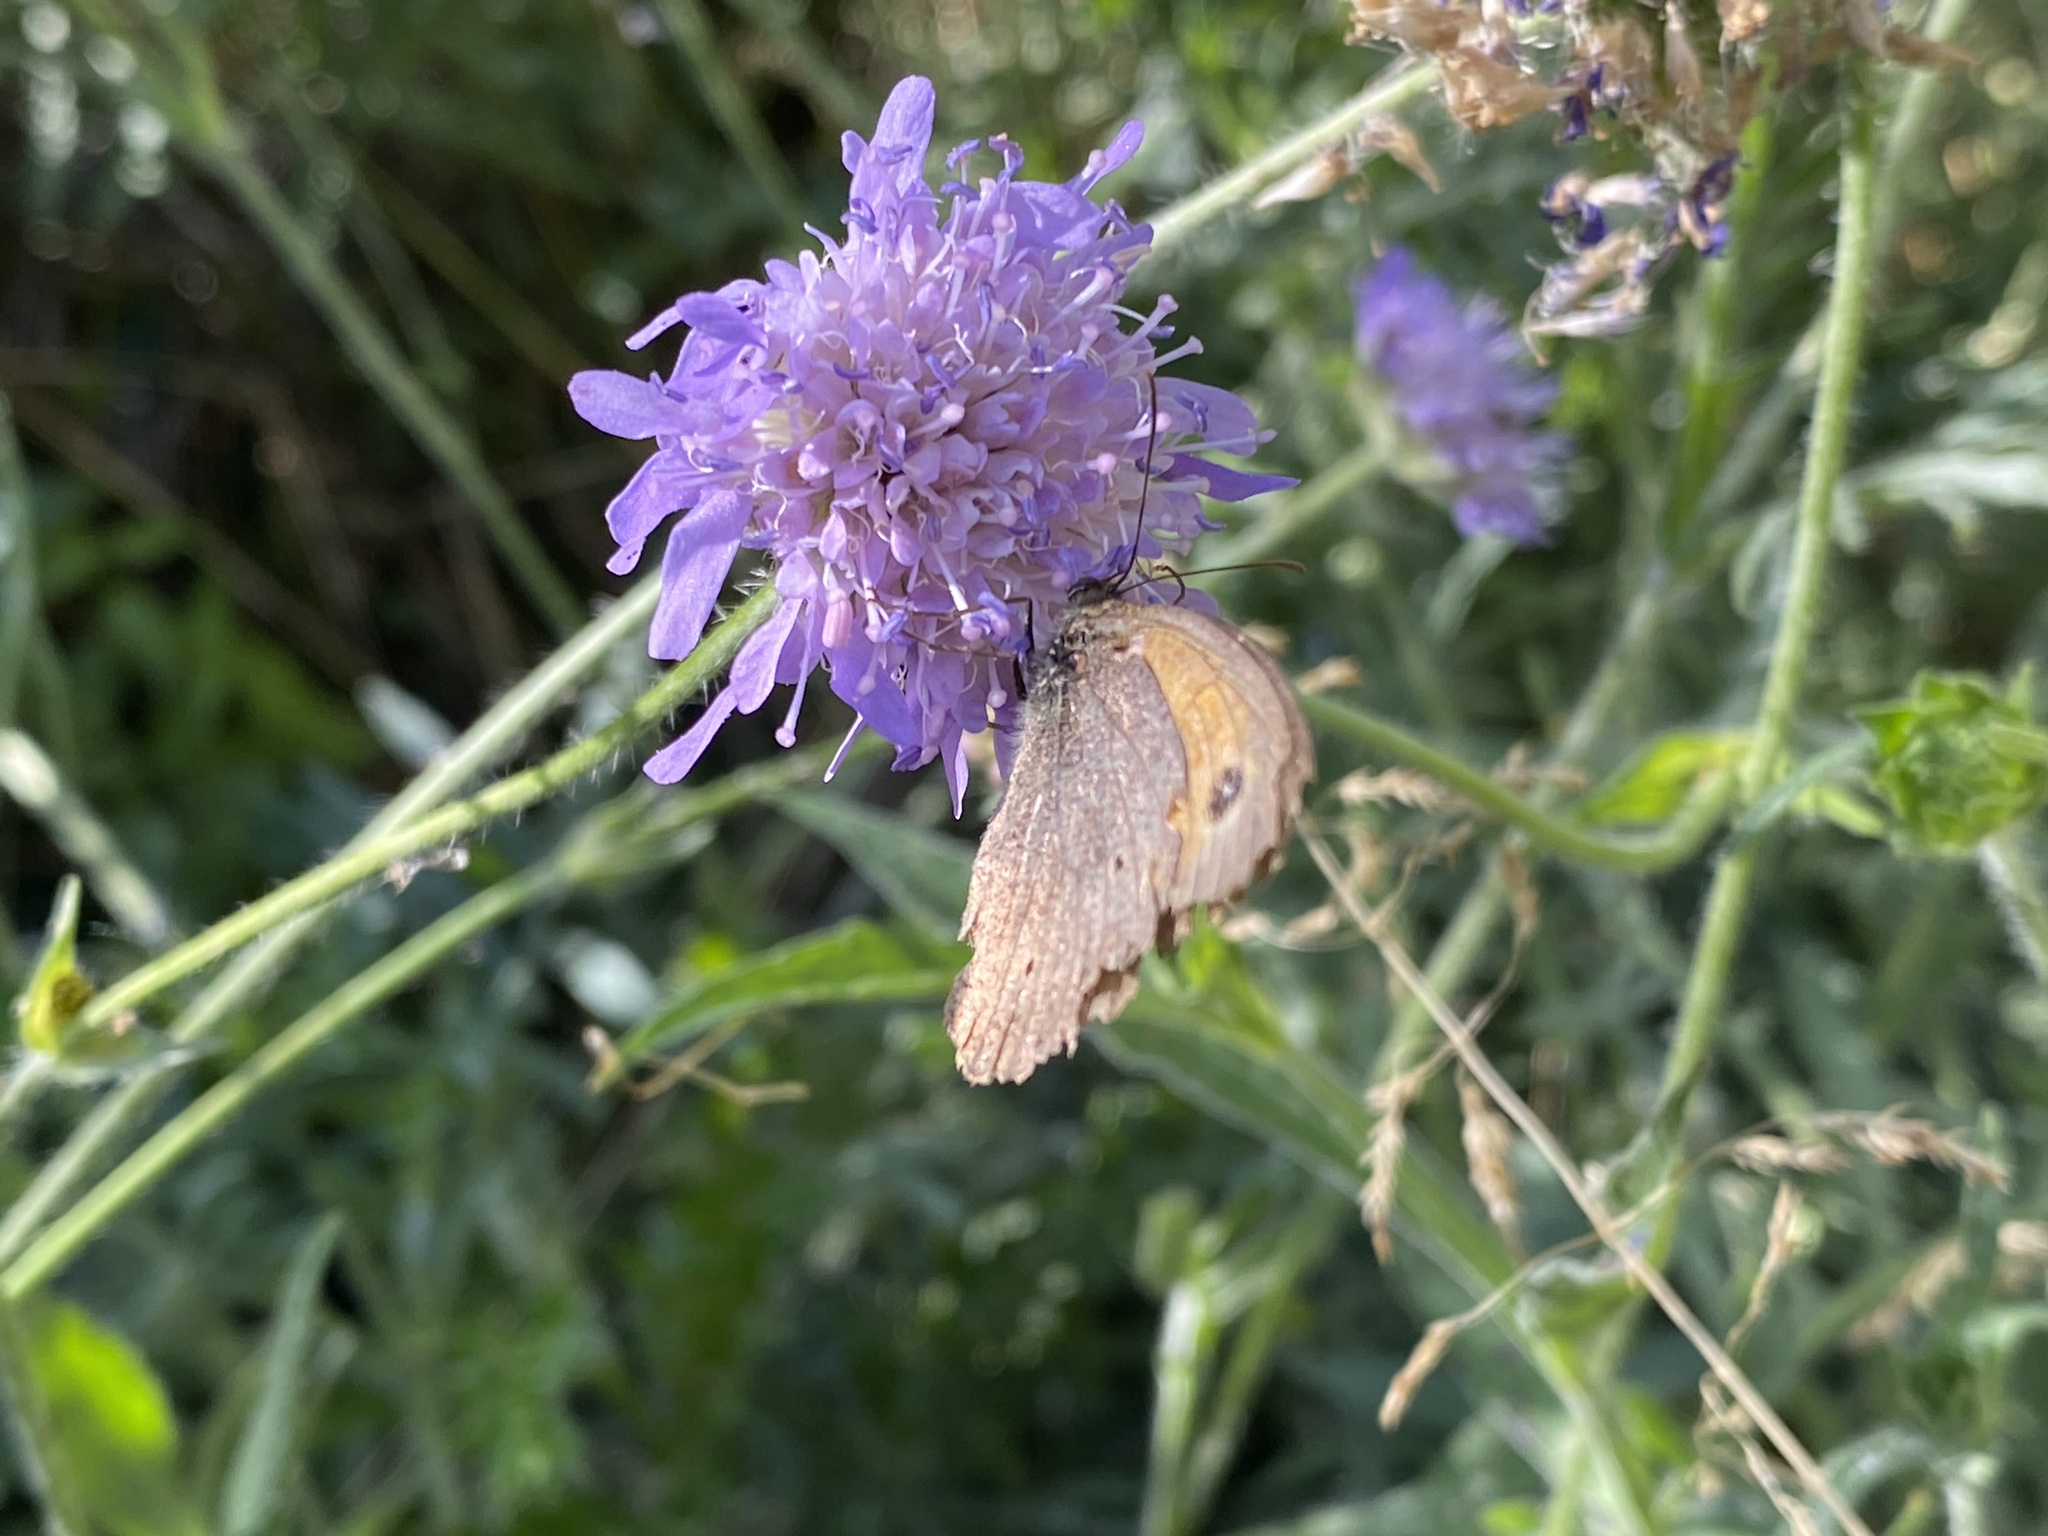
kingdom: Animalia
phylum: Arthropoda
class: Insecta
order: Lepidoptera
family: Nymphalidae
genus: Maniola
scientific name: Maniola jurtina
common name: Meadow brown
